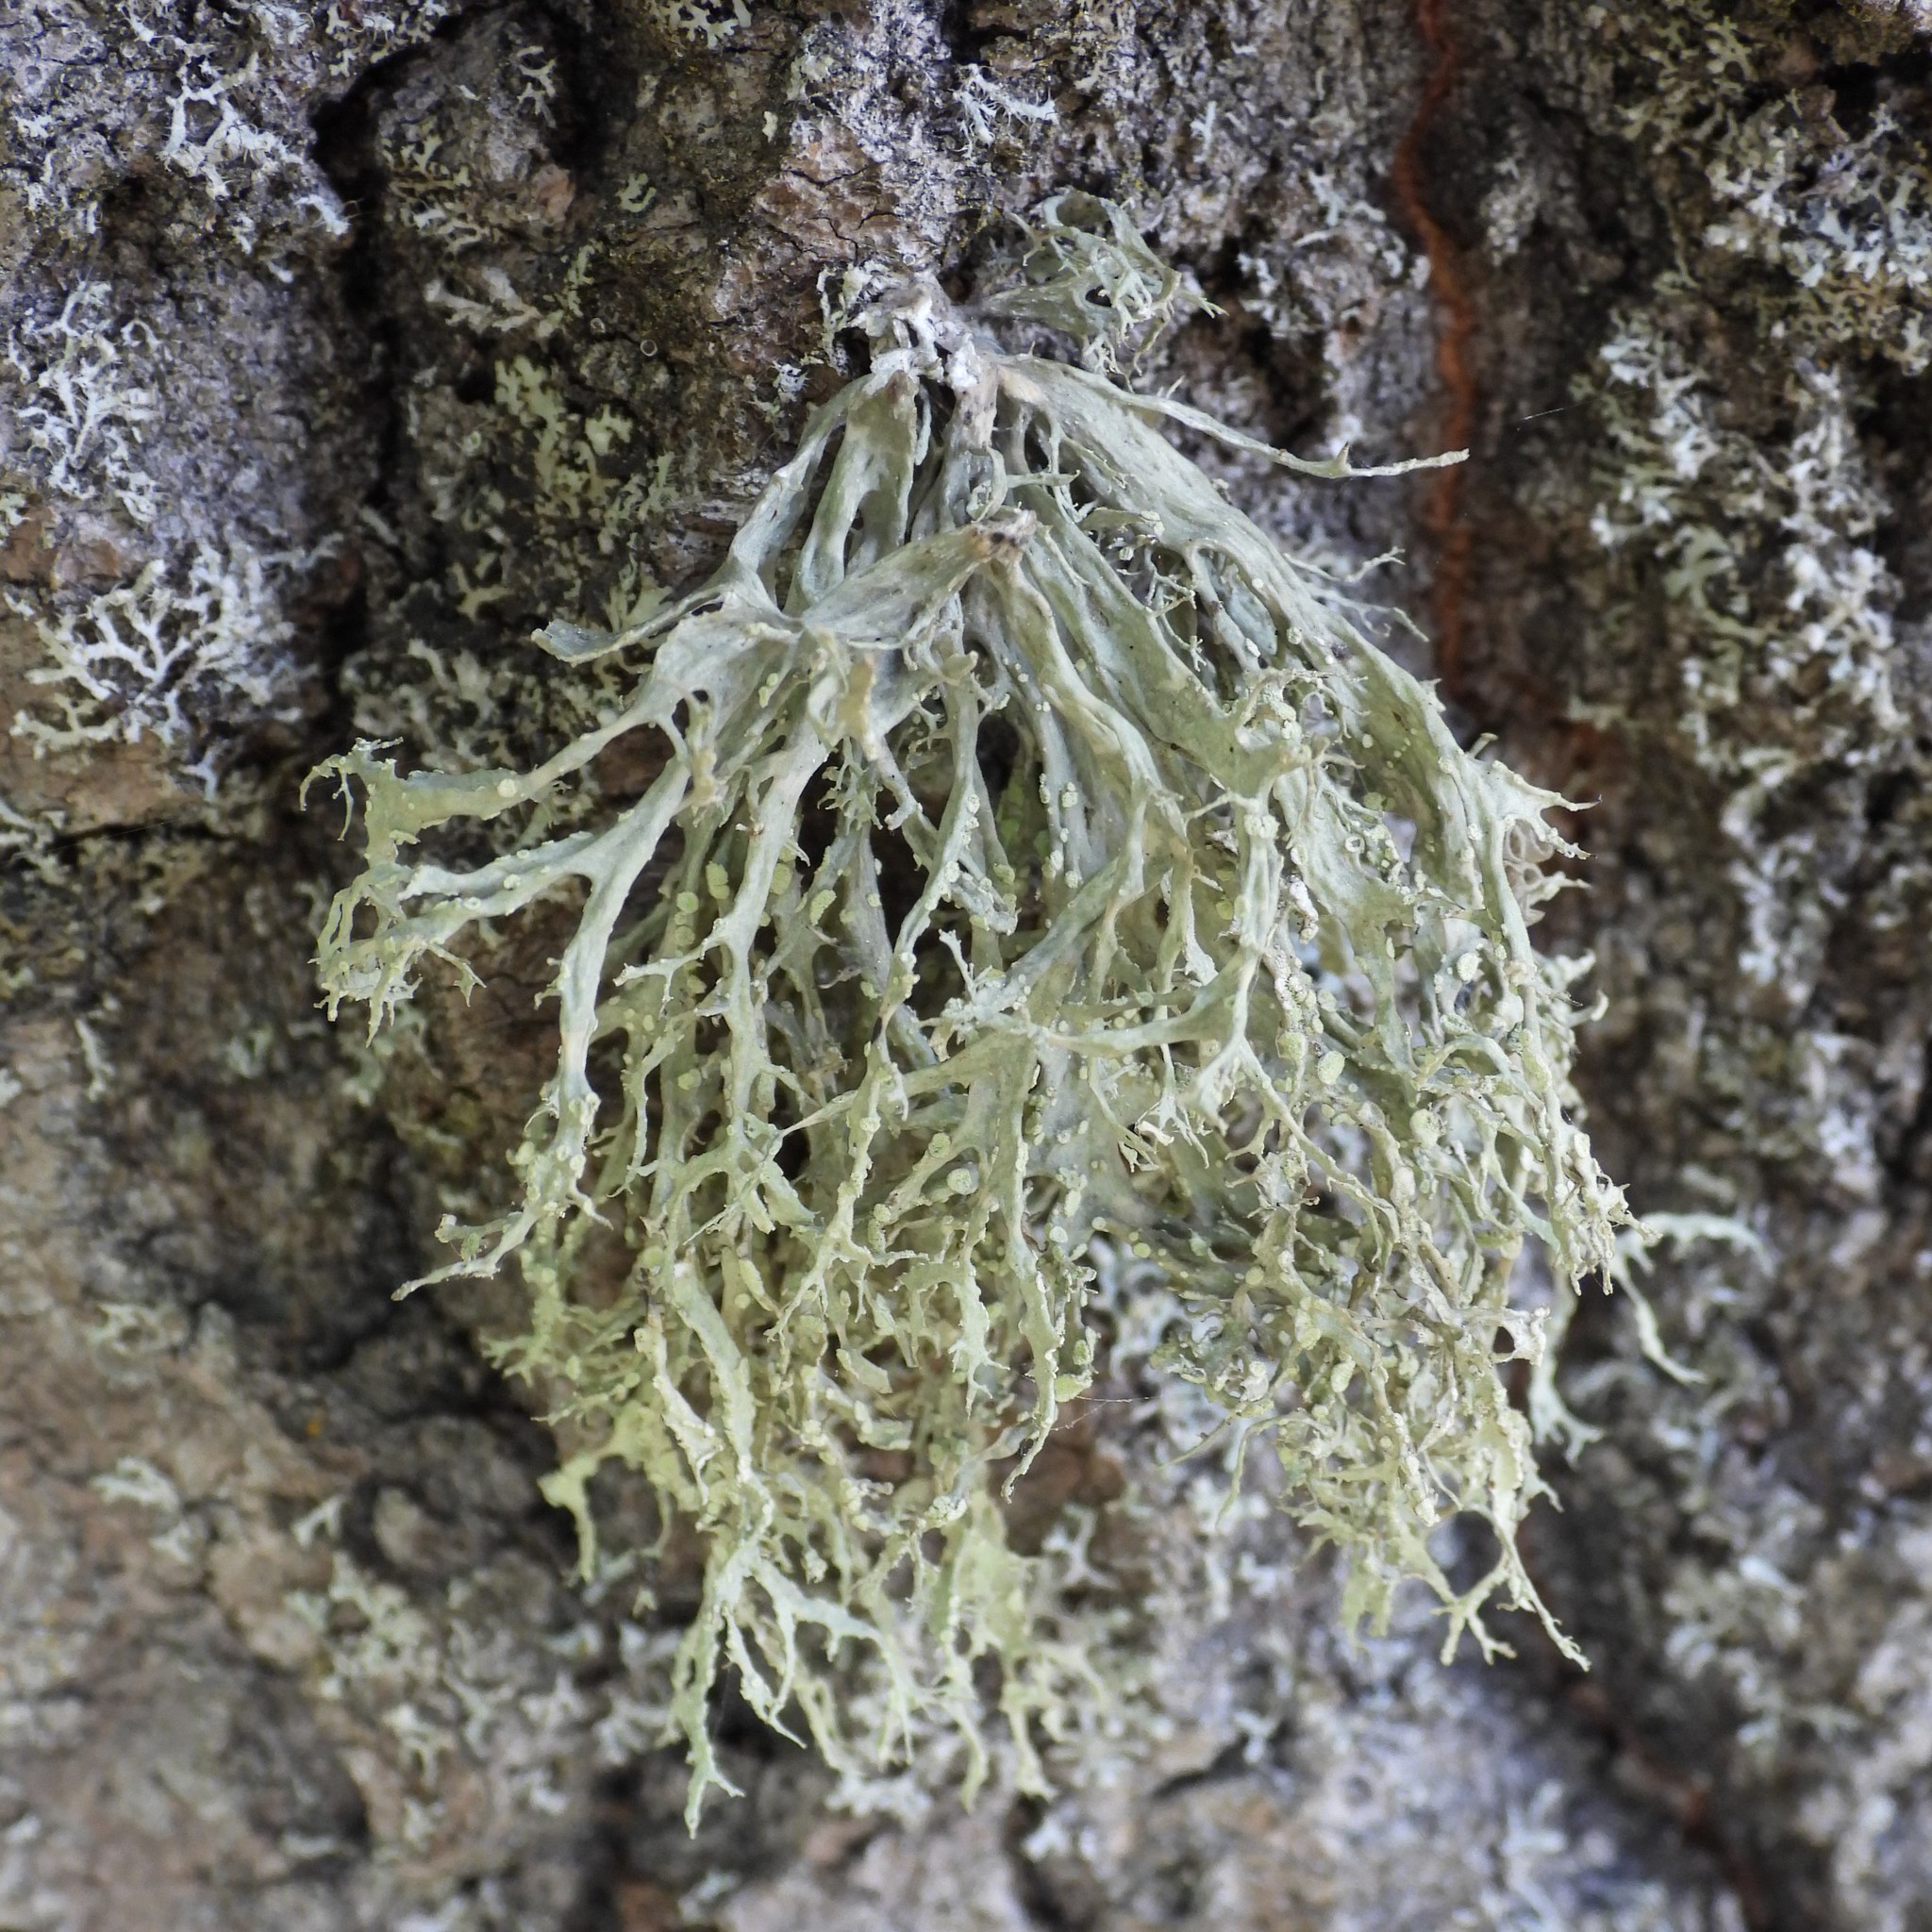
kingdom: Fungi
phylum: Ascomycota
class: Lecanoromycetes
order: Lecanorales
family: Ramalinaceae
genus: Ramalina
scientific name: Ramalina farinacea
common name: Farinose cartilage lichen
